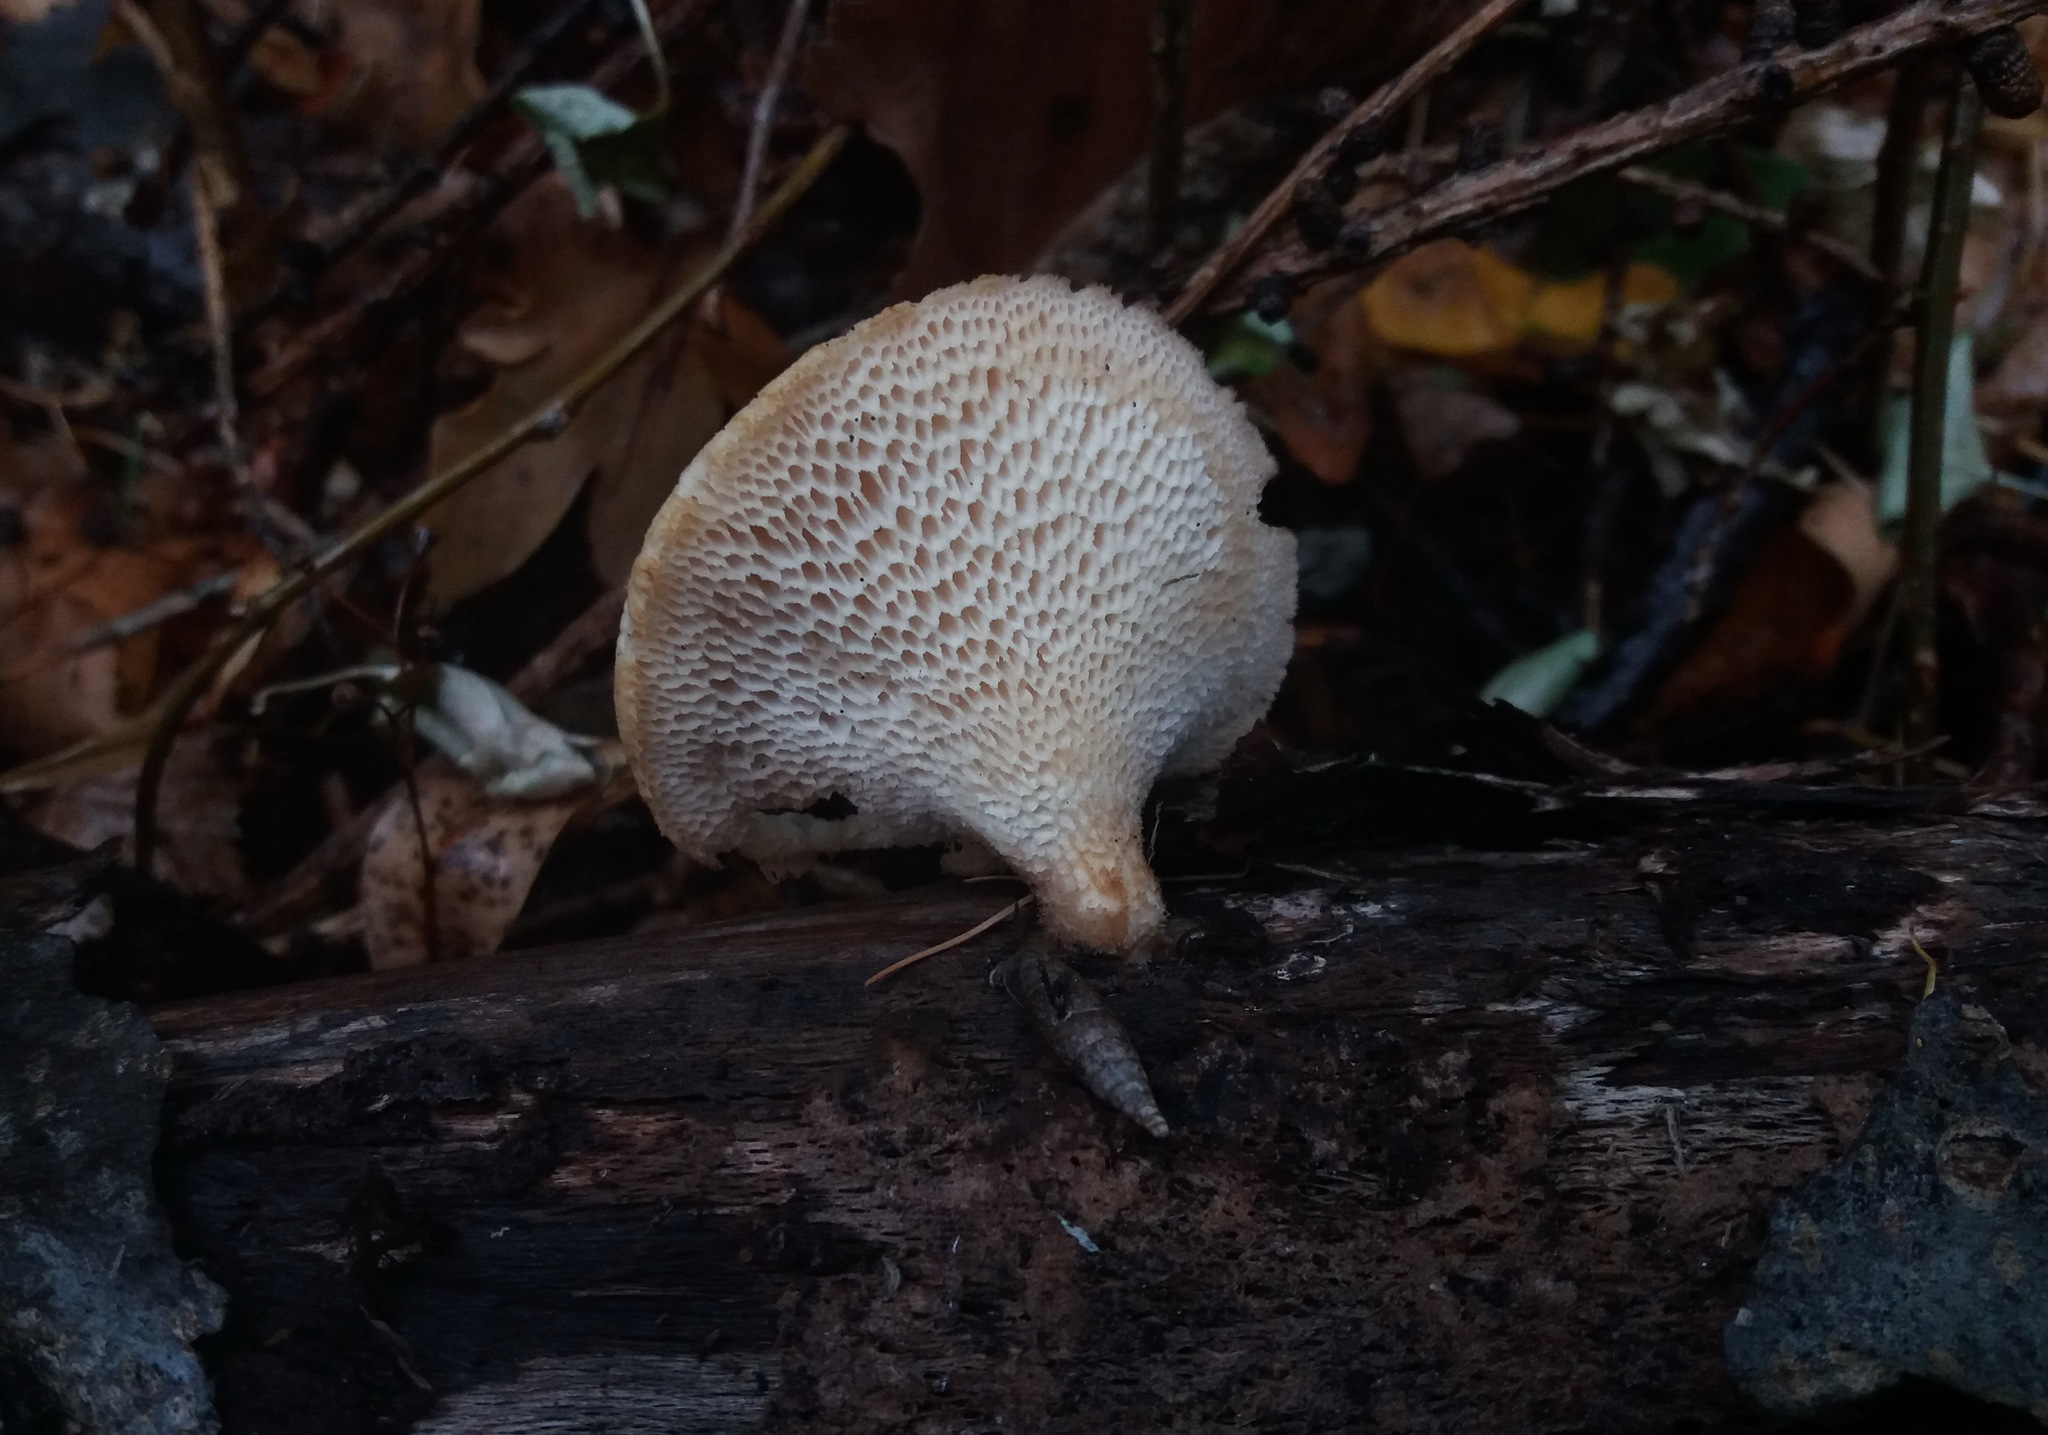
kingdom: Fungi
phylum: Basidiomycota
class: Agaricomycetes
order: Polyporales
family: Polyporaceae
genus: Neofavolus
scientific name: Neofavolus alveolaris
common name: Hexagonal-pored polypore
